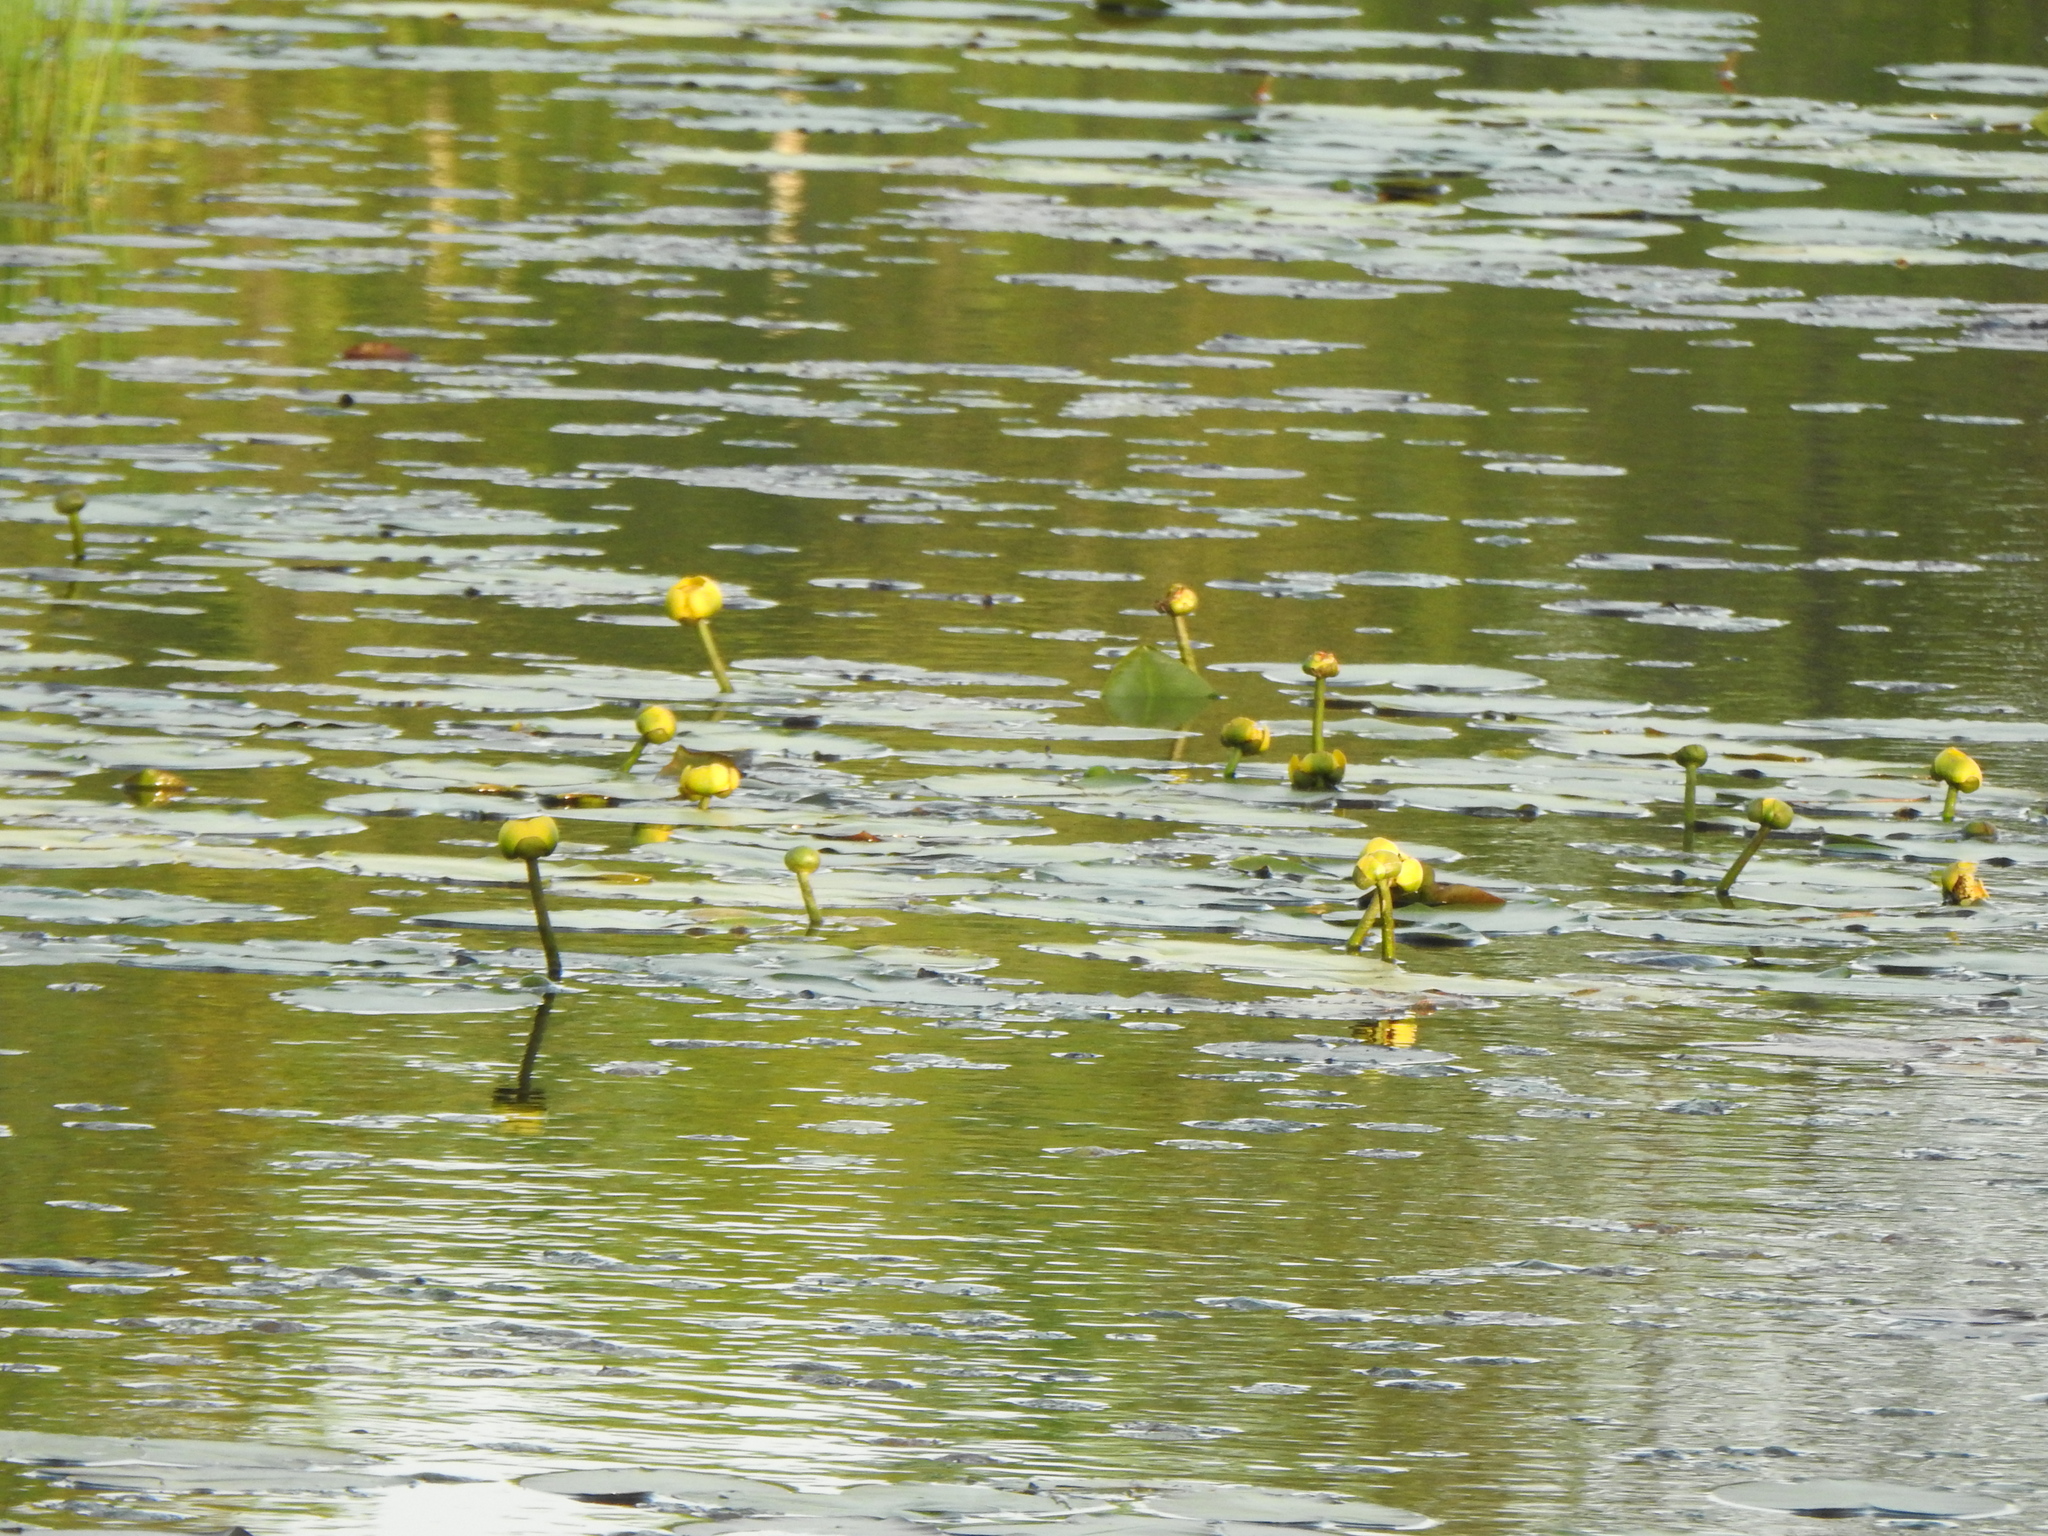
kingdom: Plantae
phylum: Tracheophyta
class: Magnoliopsida
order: Nymphaeales
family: Nymphaeaceae
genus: Nuphar
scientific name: Nuphar variegata
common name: Beaver-root
